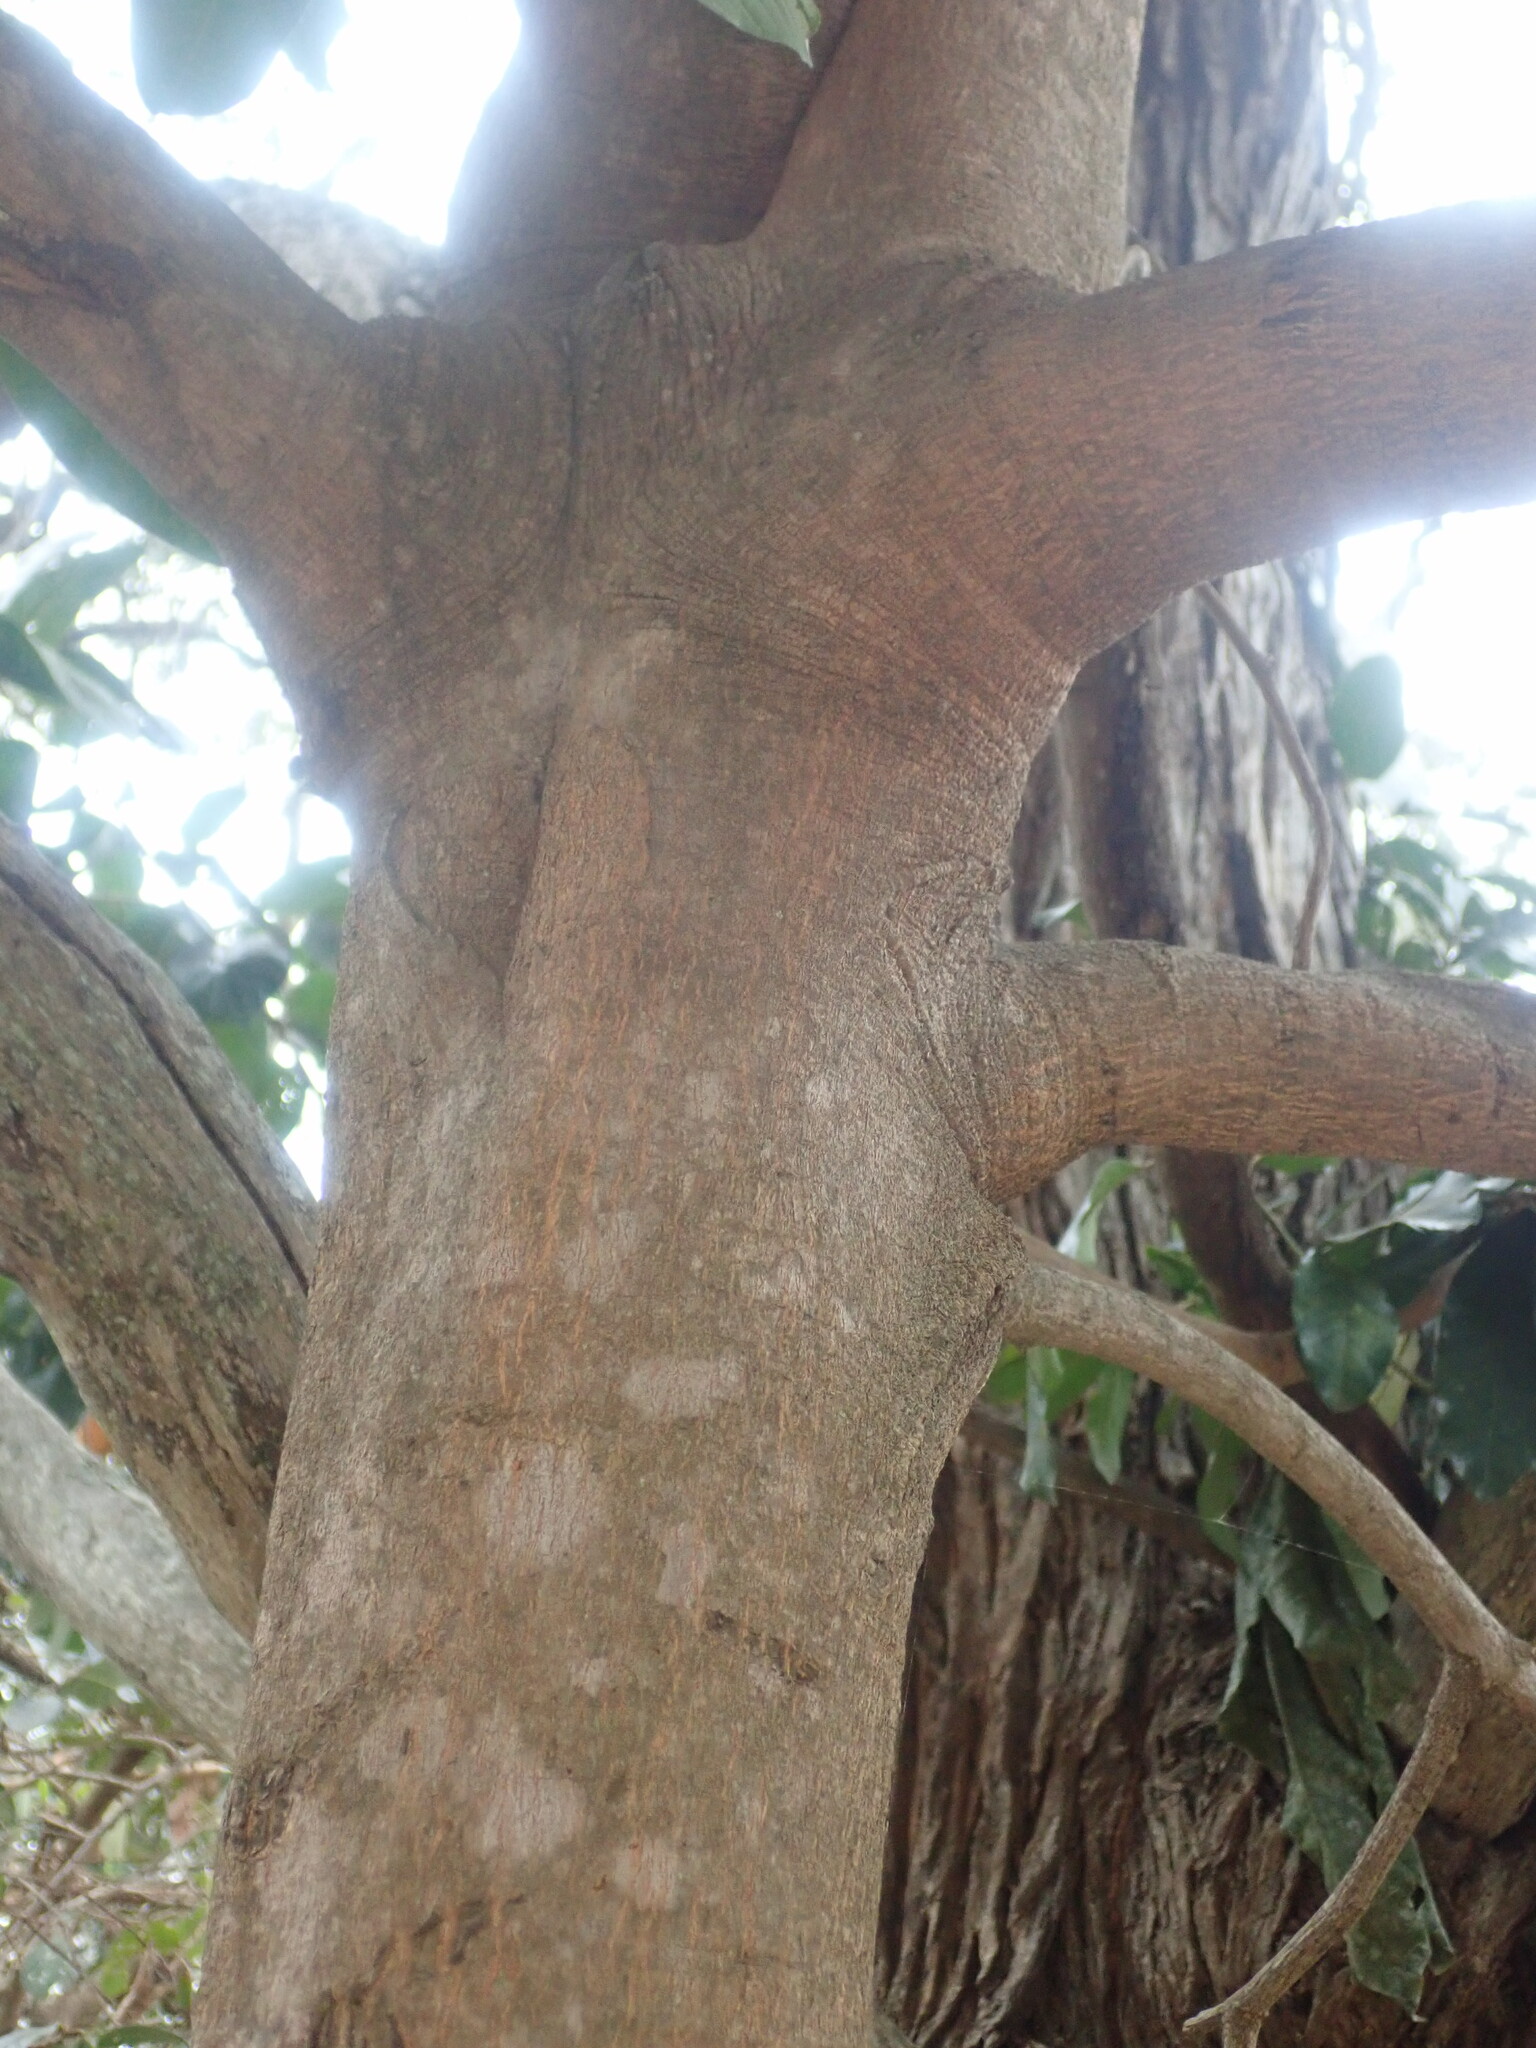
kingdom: Plantae
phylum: Tracheophyta
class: Magnoliopsida
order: Ericales
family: Ebenaceae
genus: Euclea
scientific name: Euclea natalensis
